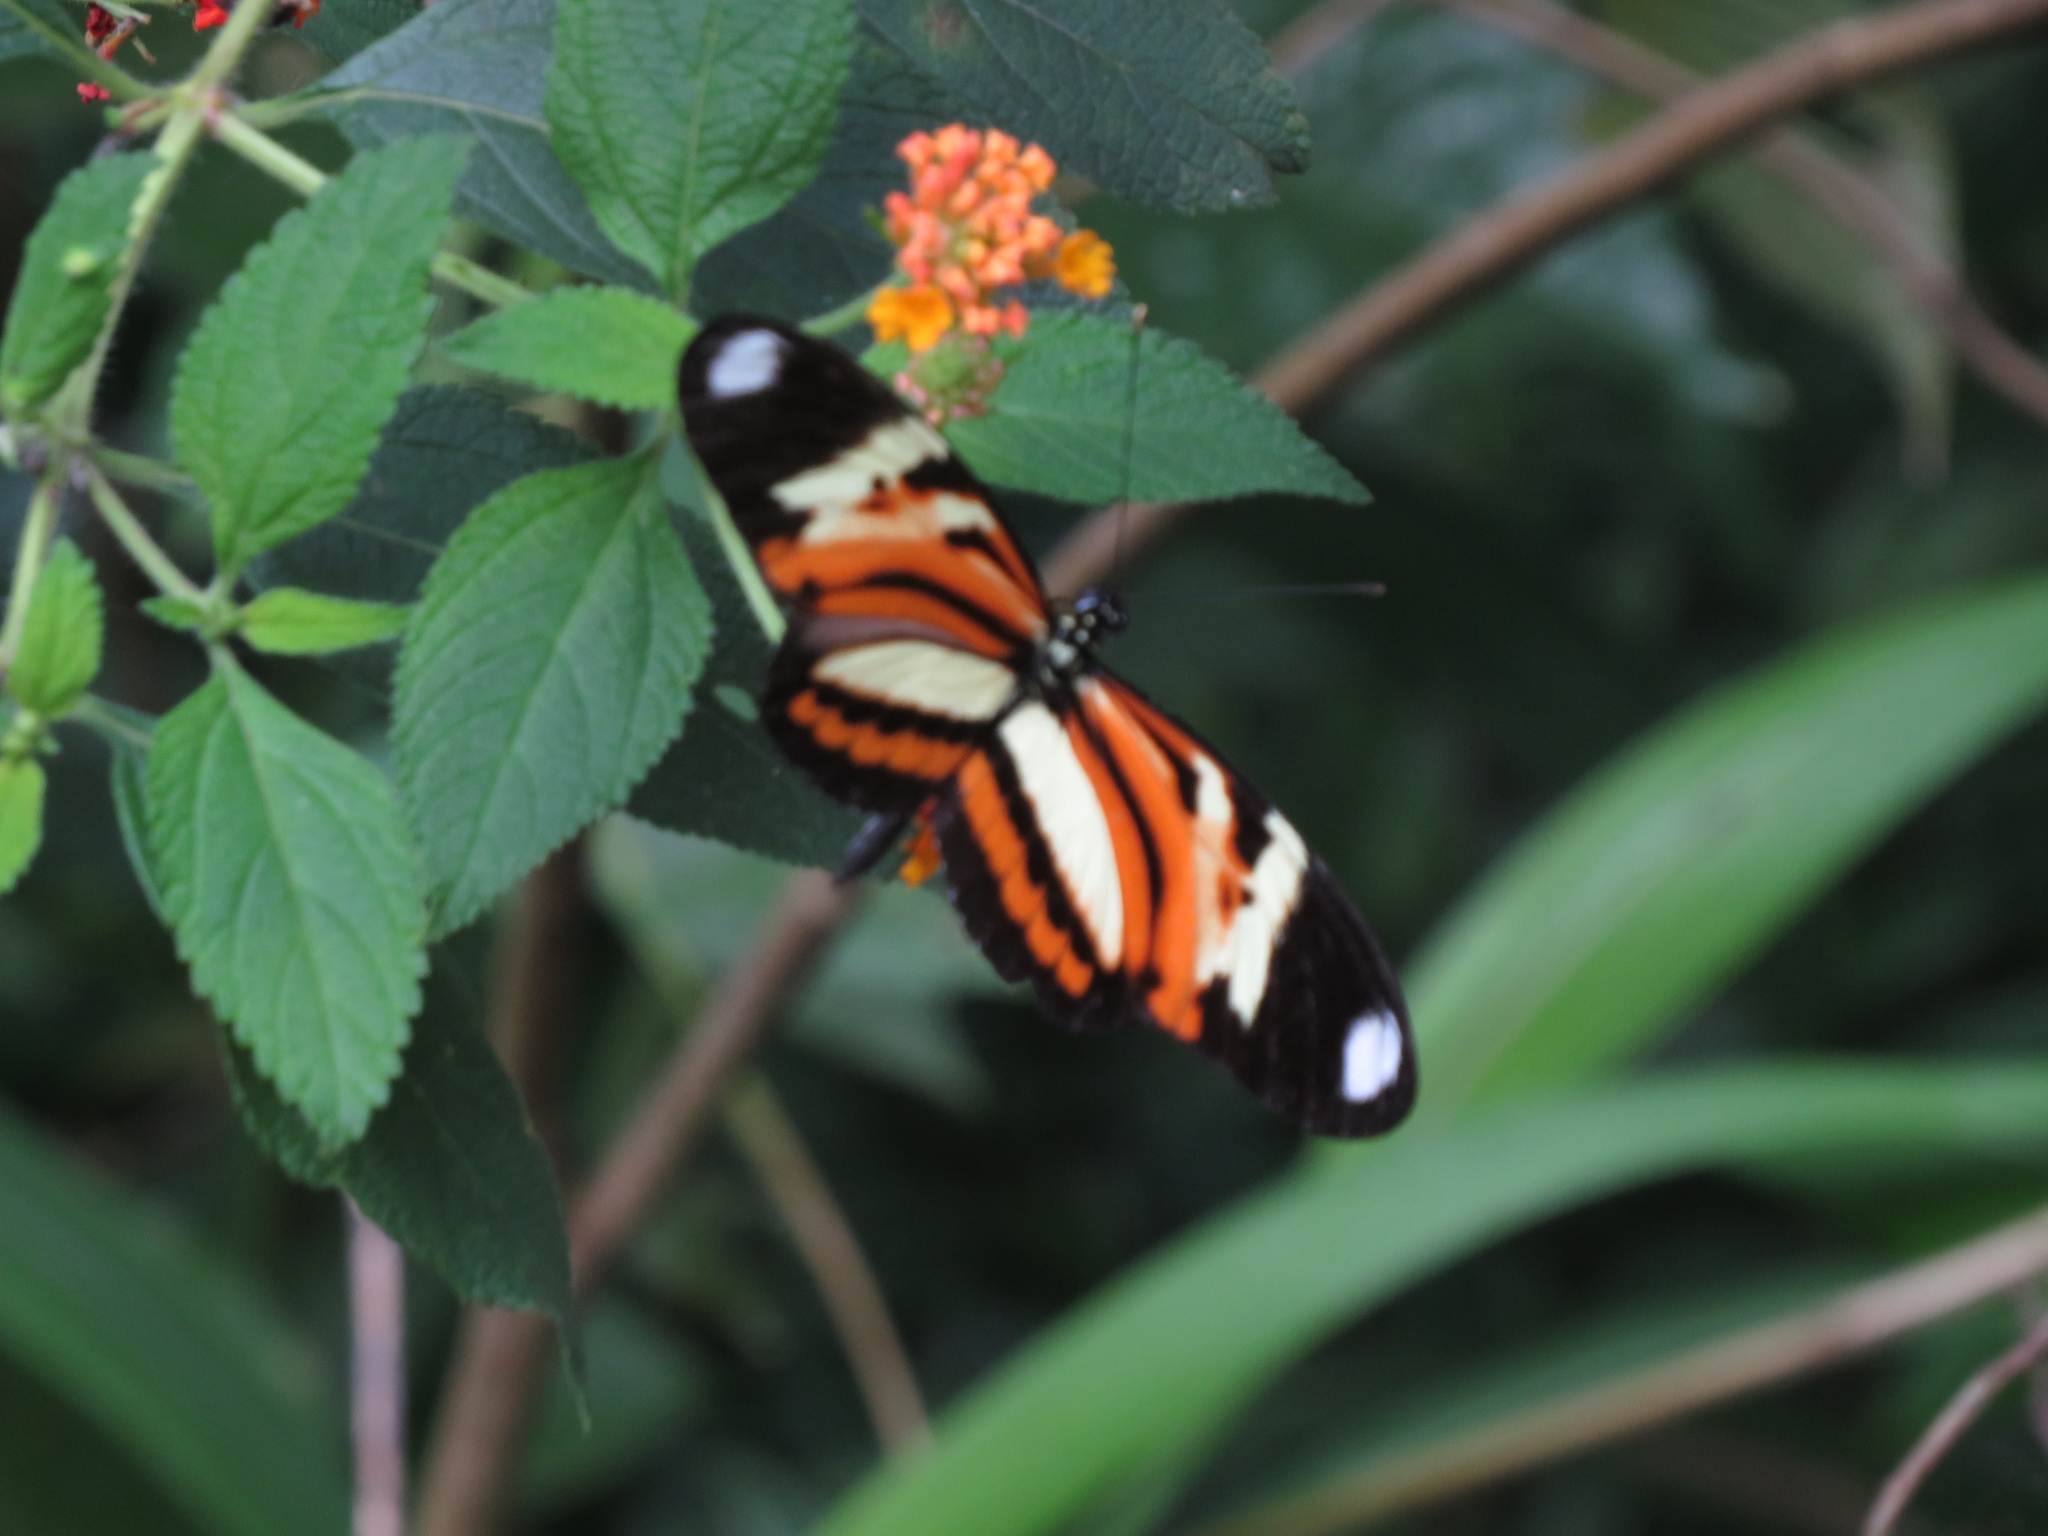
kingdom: Animalia
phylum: Arthropoda
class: Insecta
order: Lepidoptera
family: Nymphalidae
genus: Heliconius
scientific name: Heliconius ethilla
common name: Ethilia longwing
